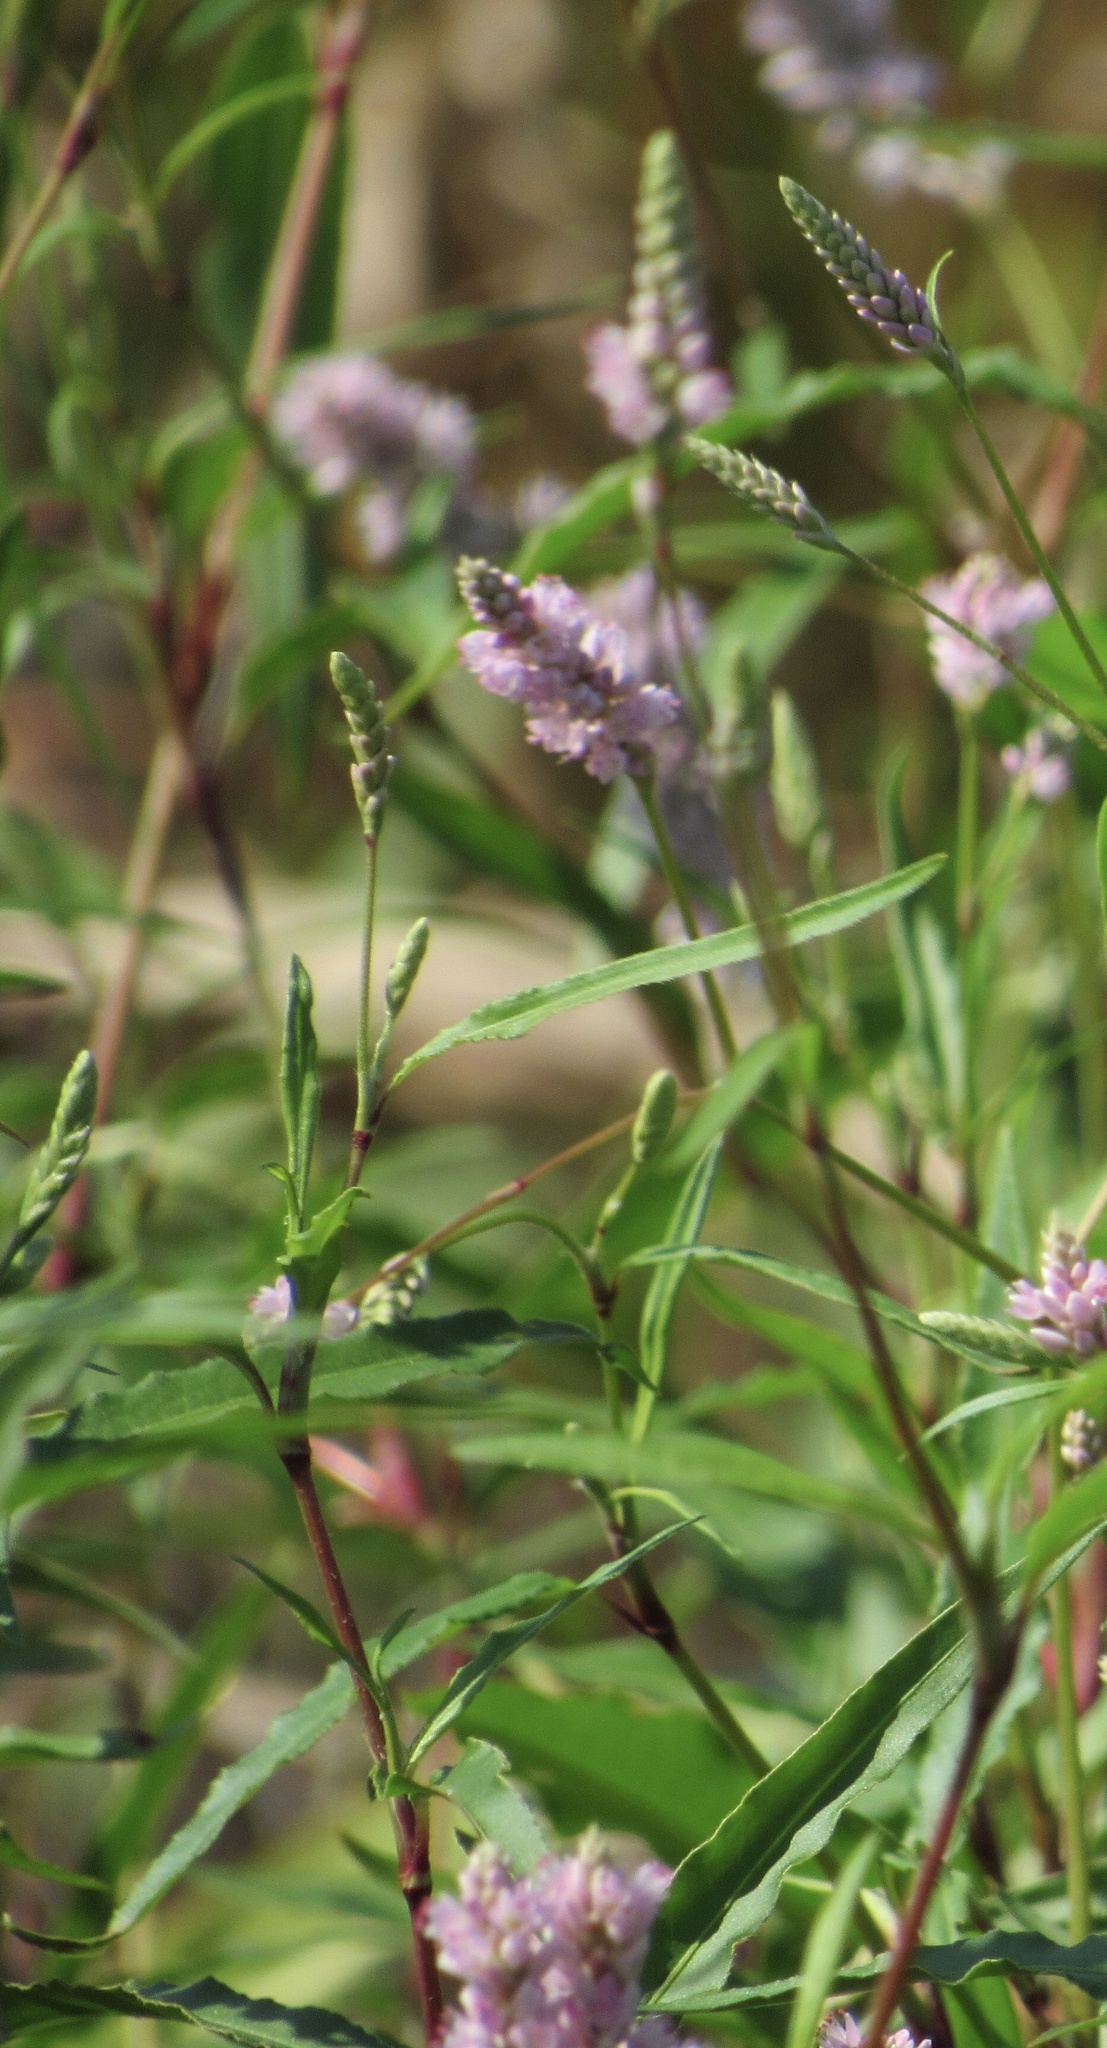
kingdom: Plantae
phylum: Tracheophyta
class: Magnoliopsida
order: Caryophyllales
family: Polygonaceae
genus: Persicaria
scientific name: Persicaria pensylvanica
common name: Pinkweed
